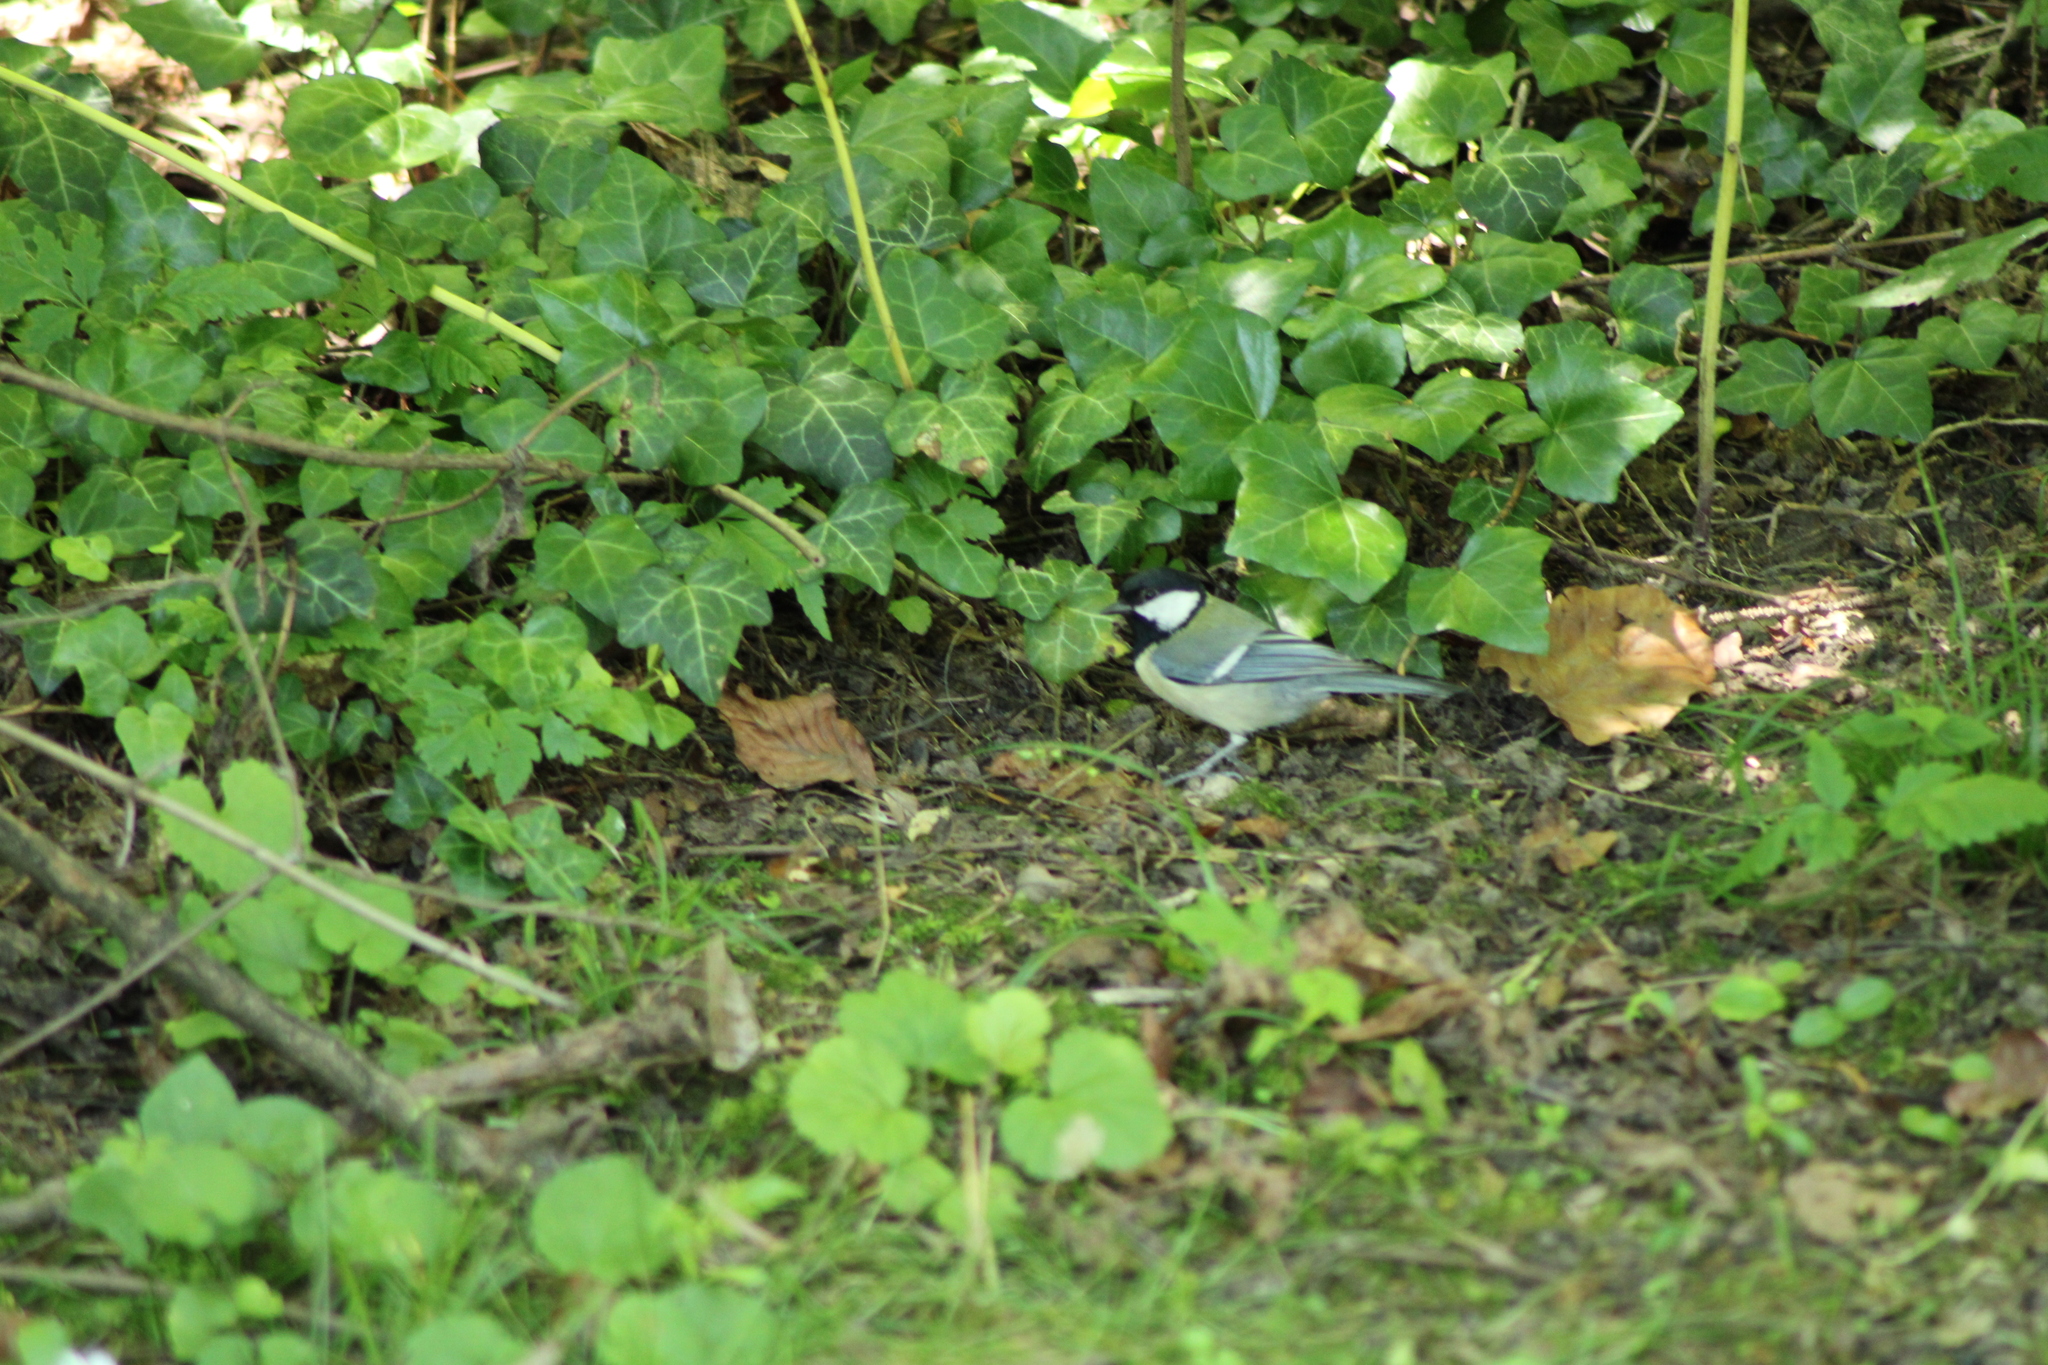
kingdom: Animalia
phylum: Chordata
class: Aves
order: Passeriformes
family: Paridae
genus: Parus
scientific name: Parus major
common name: Great tit
